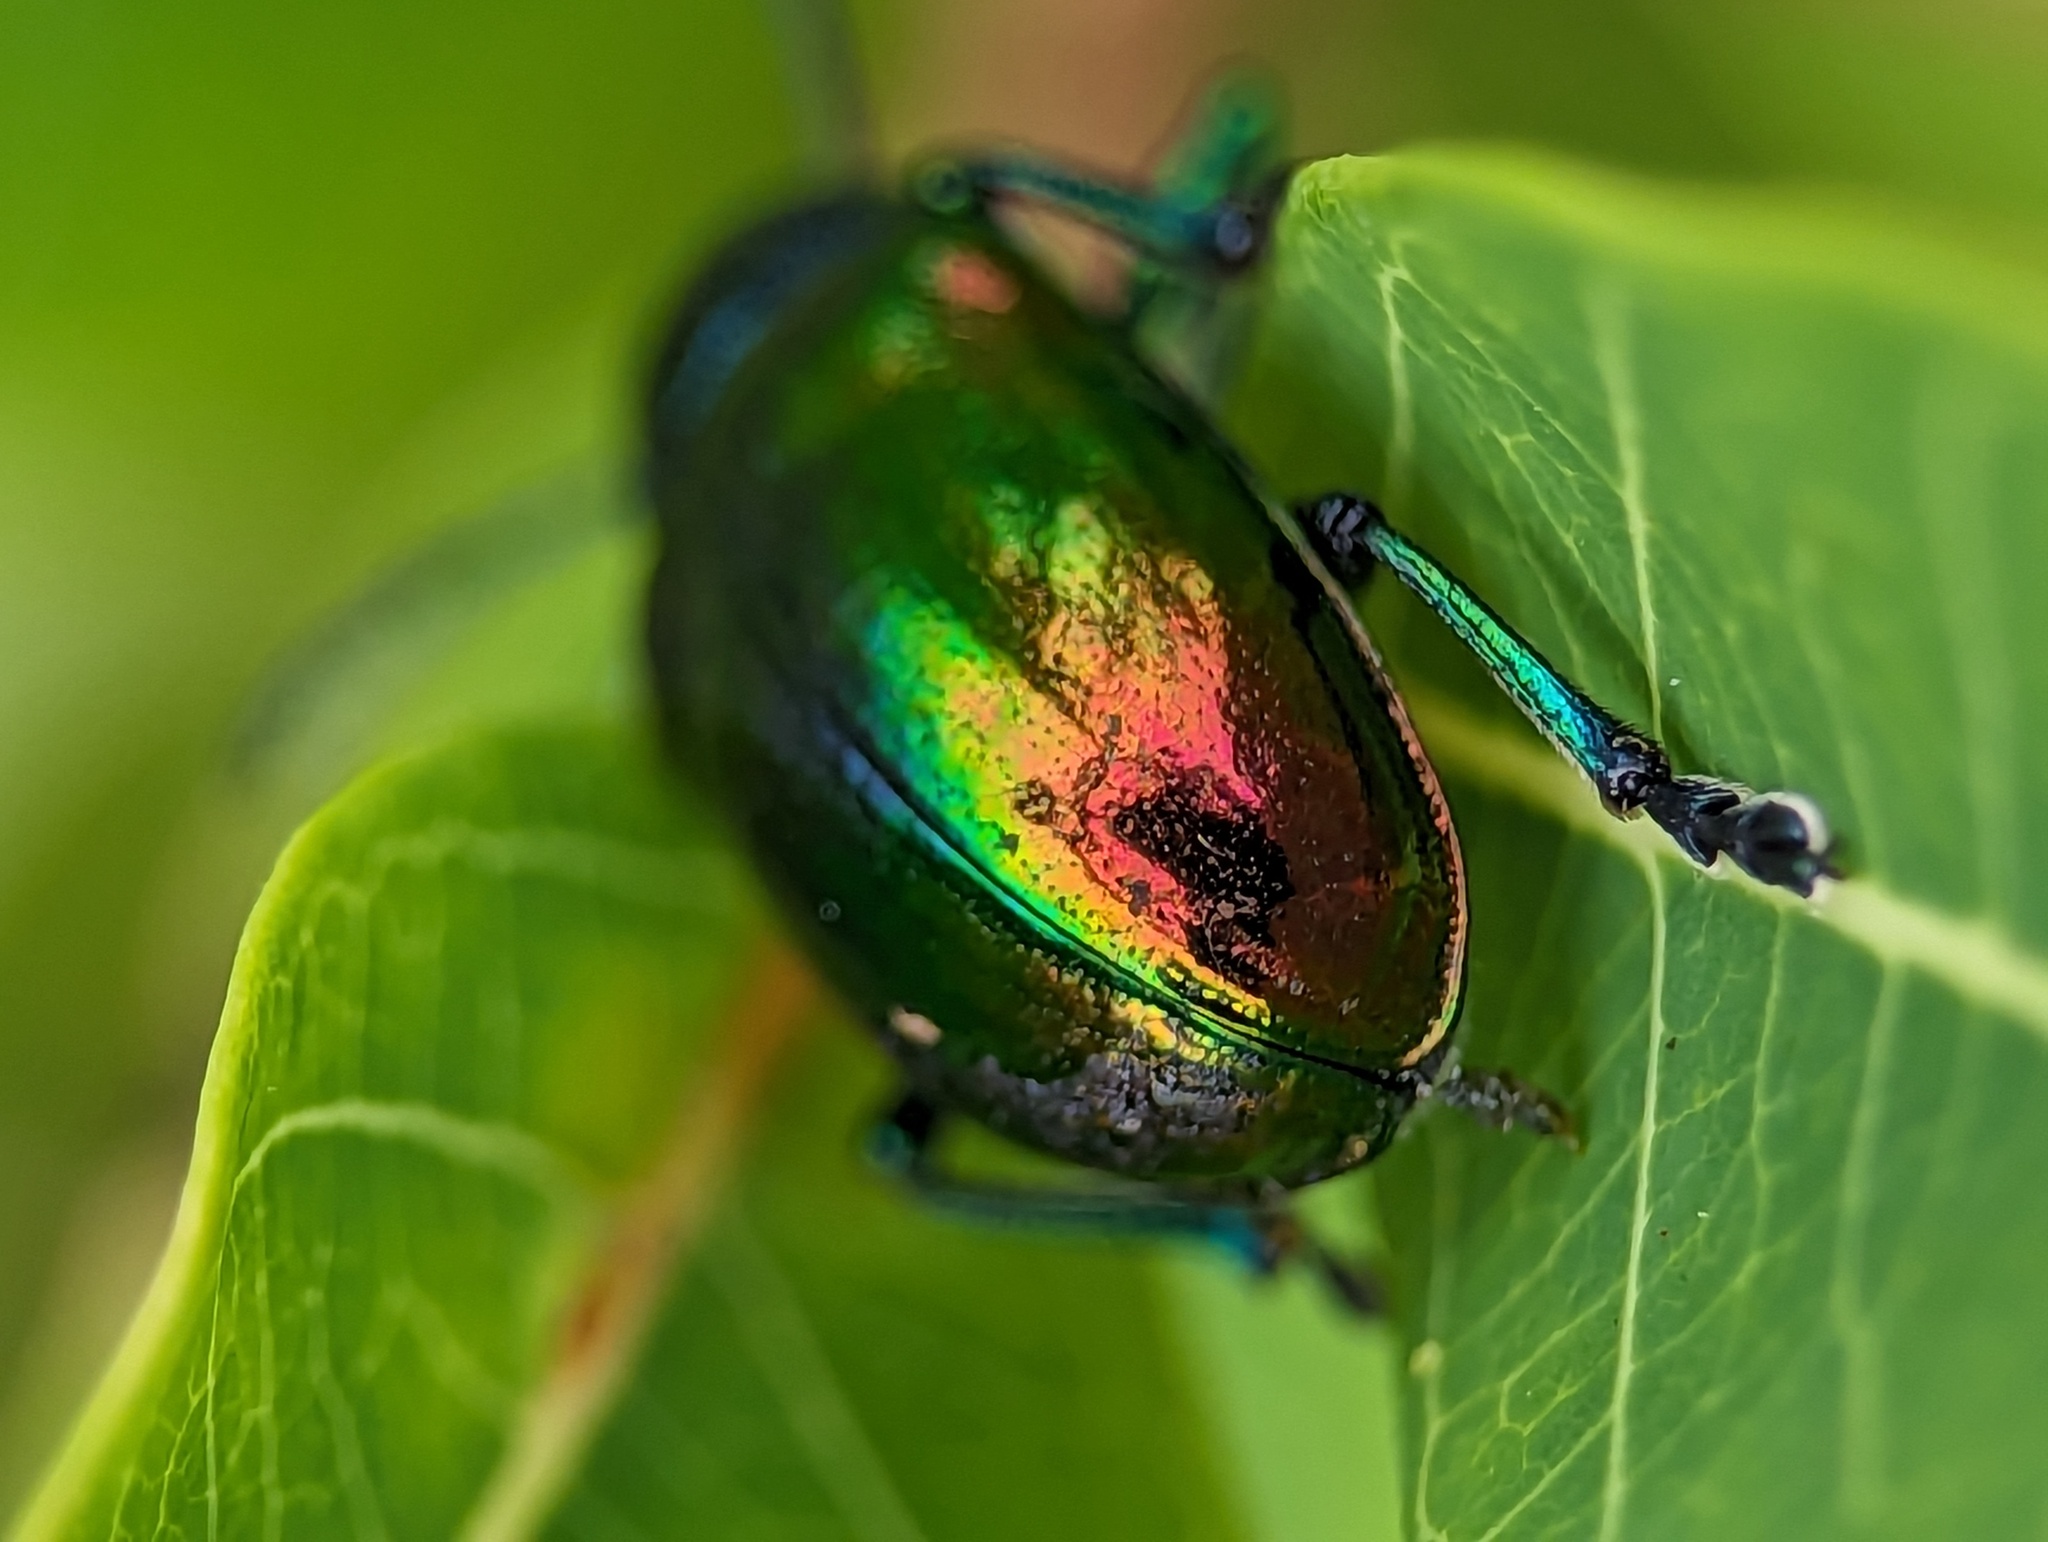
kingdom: Animalia
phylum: Arthropoda
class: Insecta
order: Coleoptera
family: Chrysomelidae
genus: Chrysochus
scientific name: Chrysochus auratus
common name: Dogbane leaf beetle
